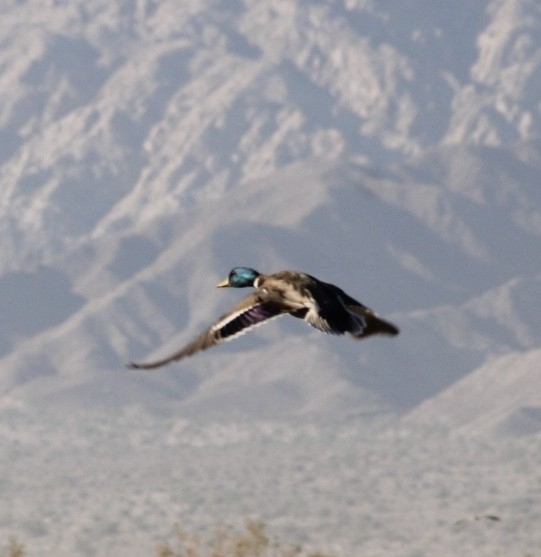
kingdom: Animalia
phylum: Chordata
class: Aves
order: Anseriformes
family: Anatidae
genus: Anas
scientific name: Anas platyrhynchos
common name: Mallard
